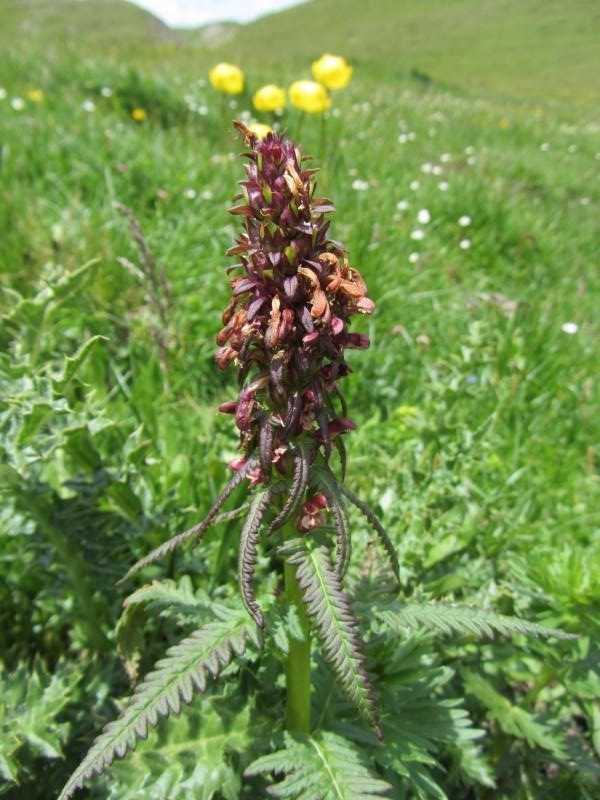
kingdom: Plantae
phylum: Tracheophyta
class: Magnoliopsida
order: Lamiales
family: Orobanchaceae
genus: Pedicularis
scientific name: Pedicularis recutita
